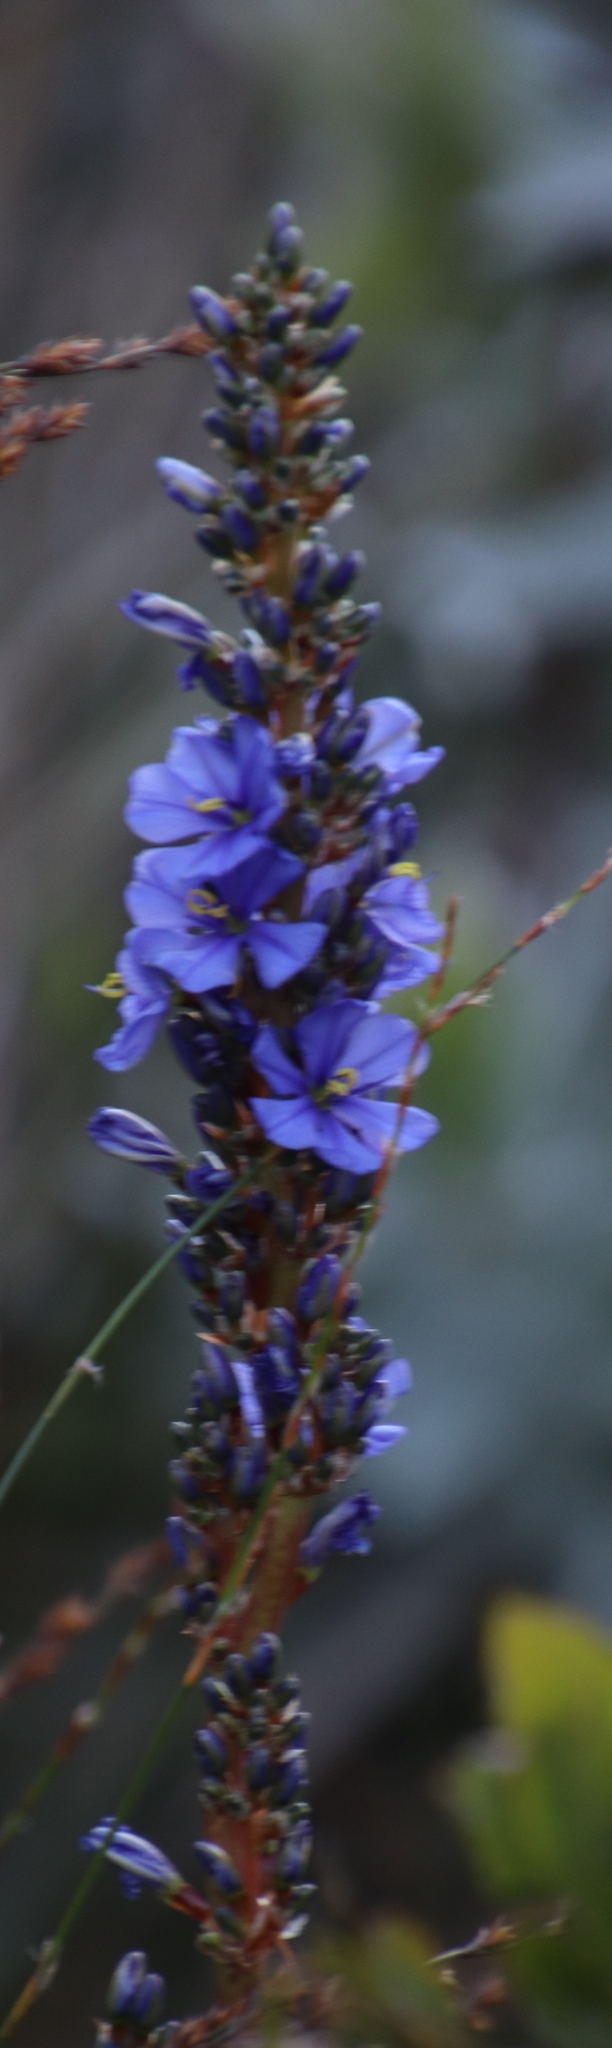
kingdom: Plantae
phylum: Tracheophyta
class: Liliopsida
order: Asparagales
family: Iridaceae
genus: Aristea
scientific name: Aristea capitata
